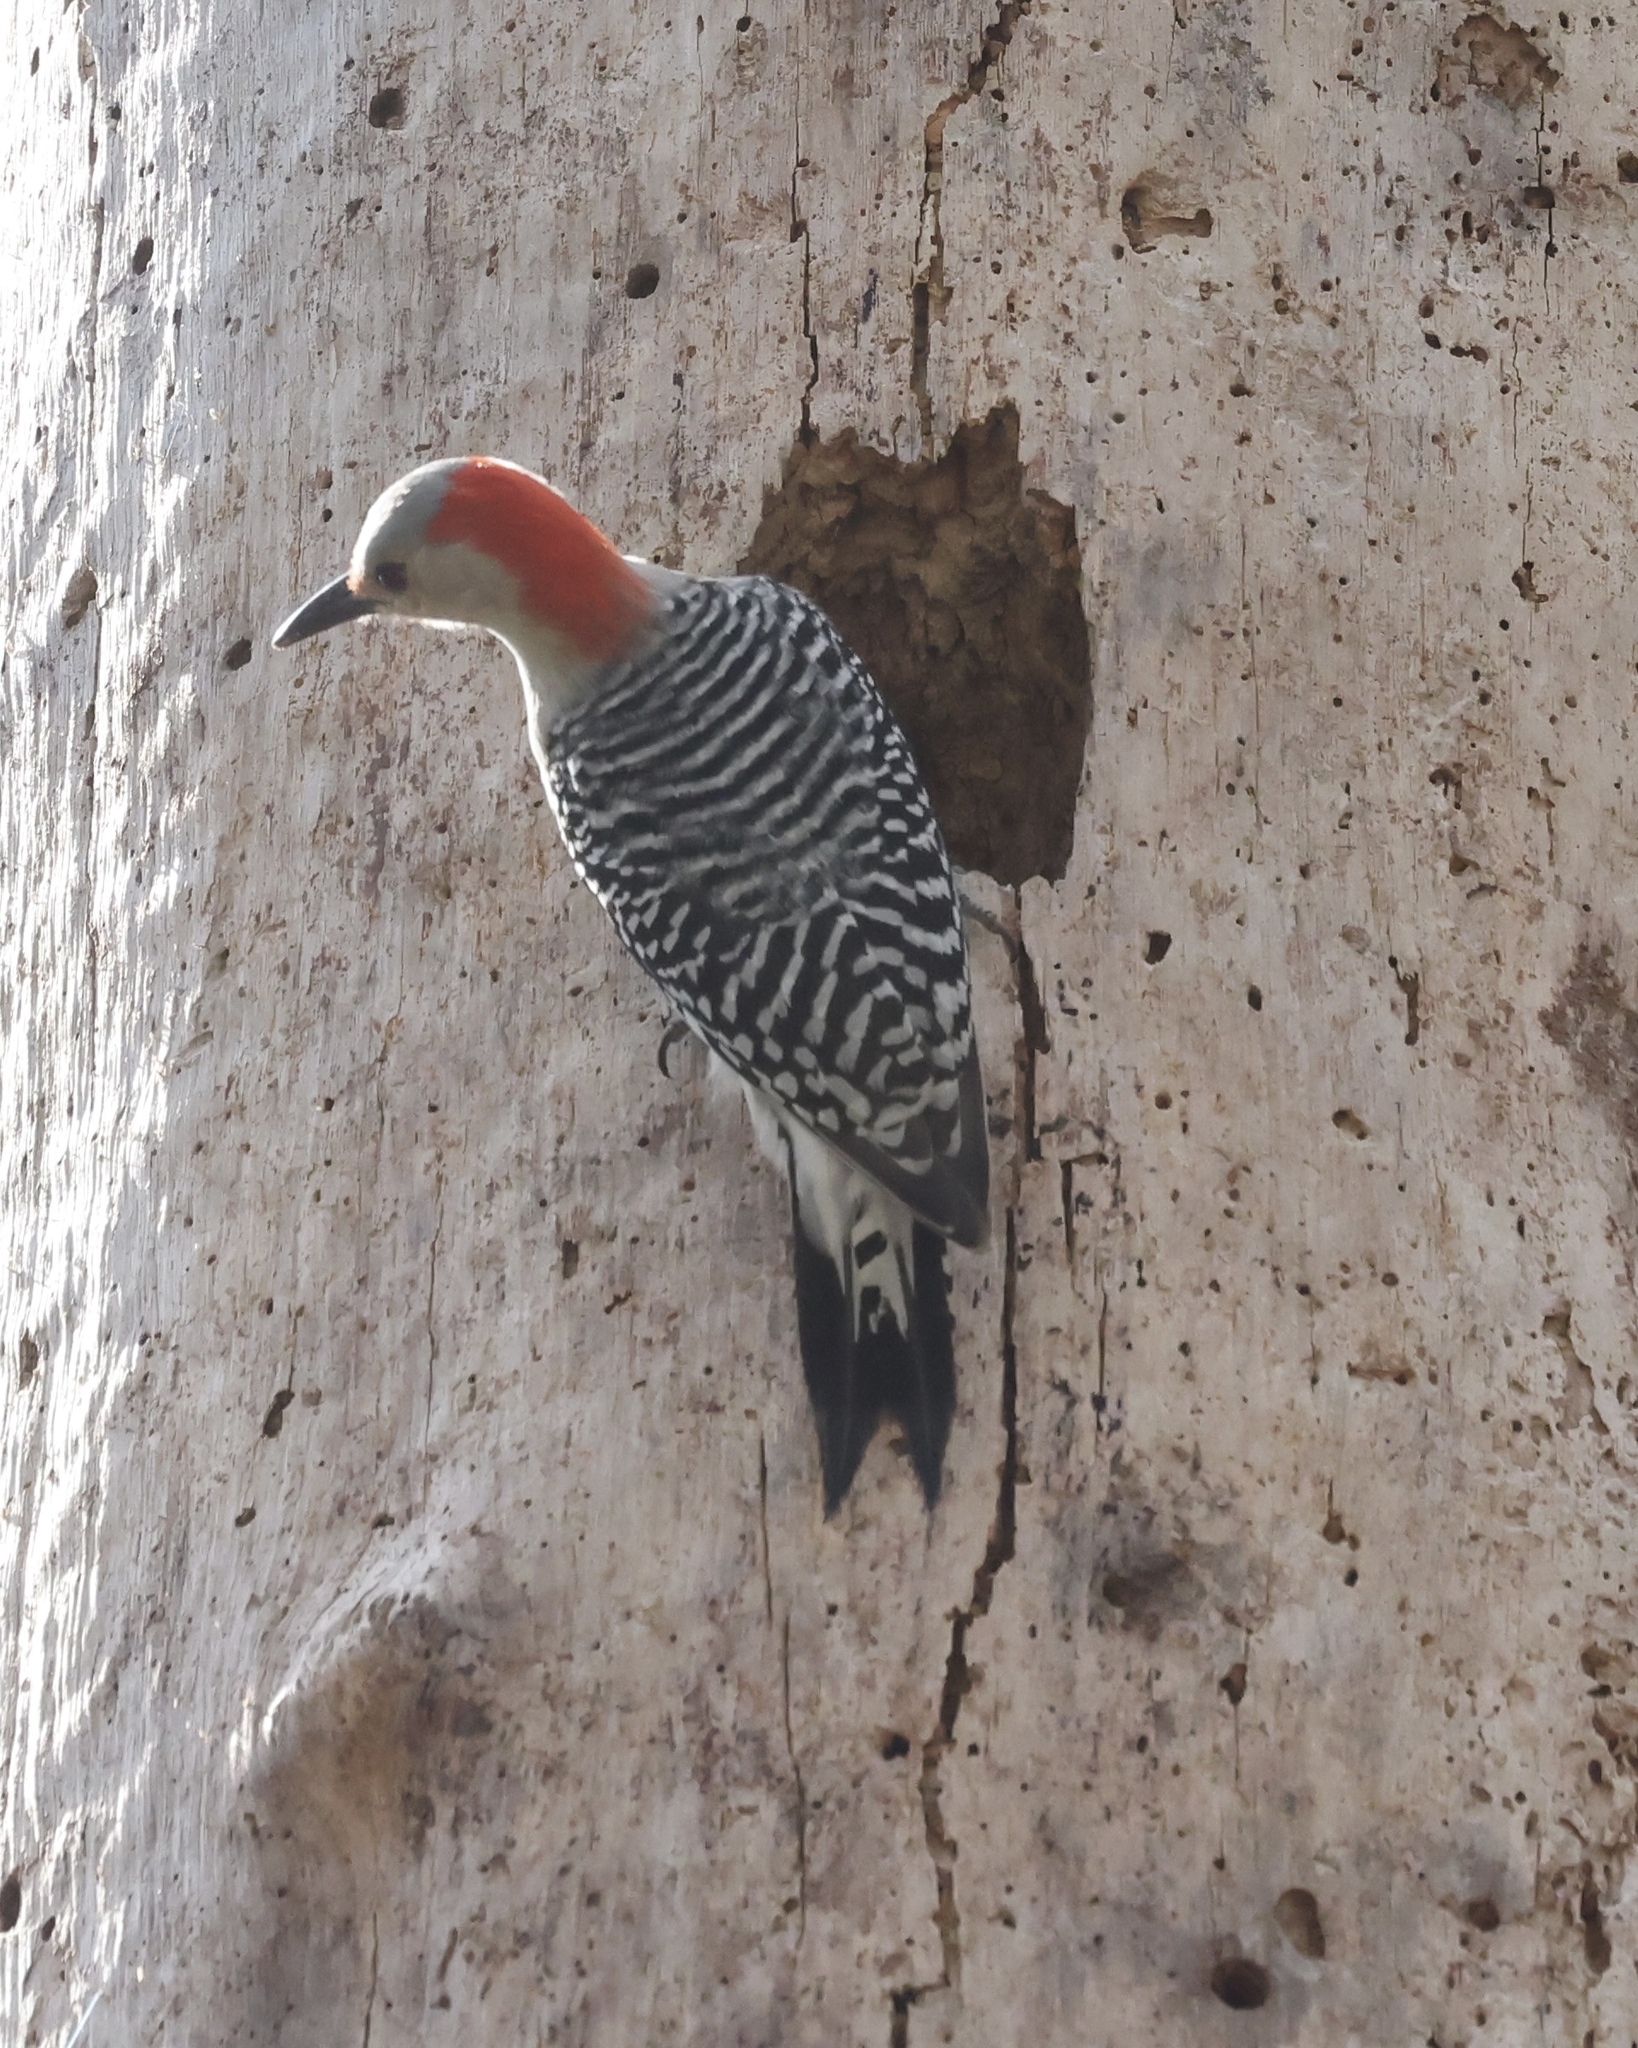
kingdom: Animalia
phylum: Chordata
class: Aves
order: Piciformes
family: Picidae
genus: Melanerpes
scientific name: Melanerpes carolinus
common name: Red-bellied woodpecker
